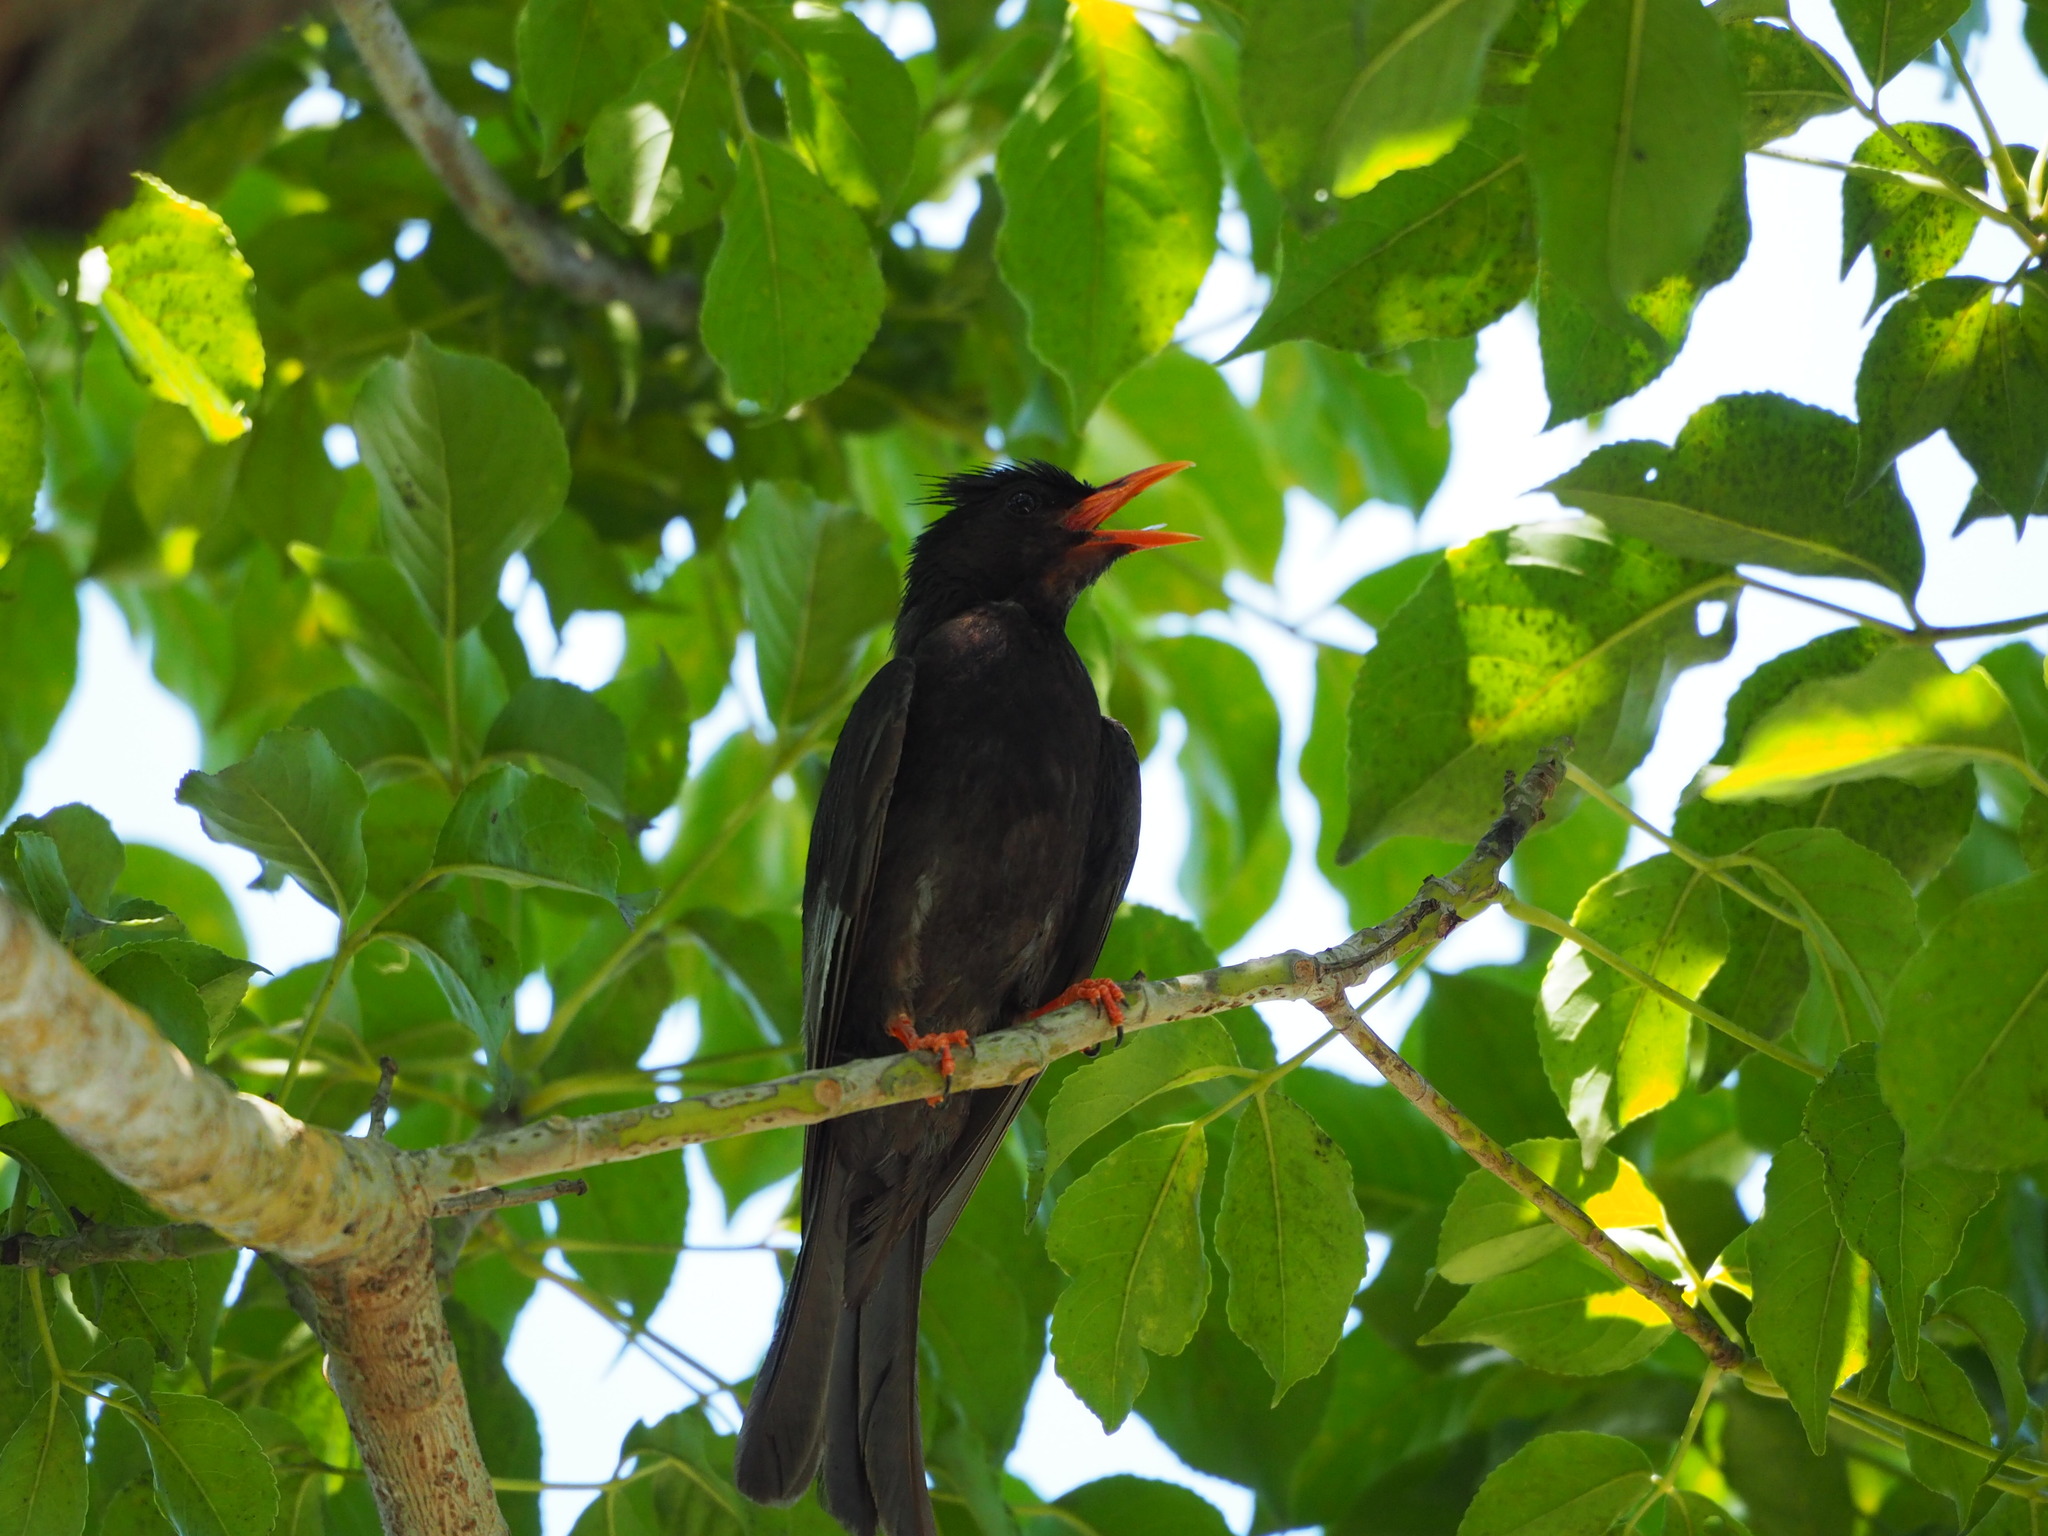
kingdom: Animalia
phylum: Chordata
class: Aves
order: Passeriformes
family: Pycnonotidae
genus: Hypsipetes
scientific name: Hypsipetes leucocephalus
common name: Black bulbul
